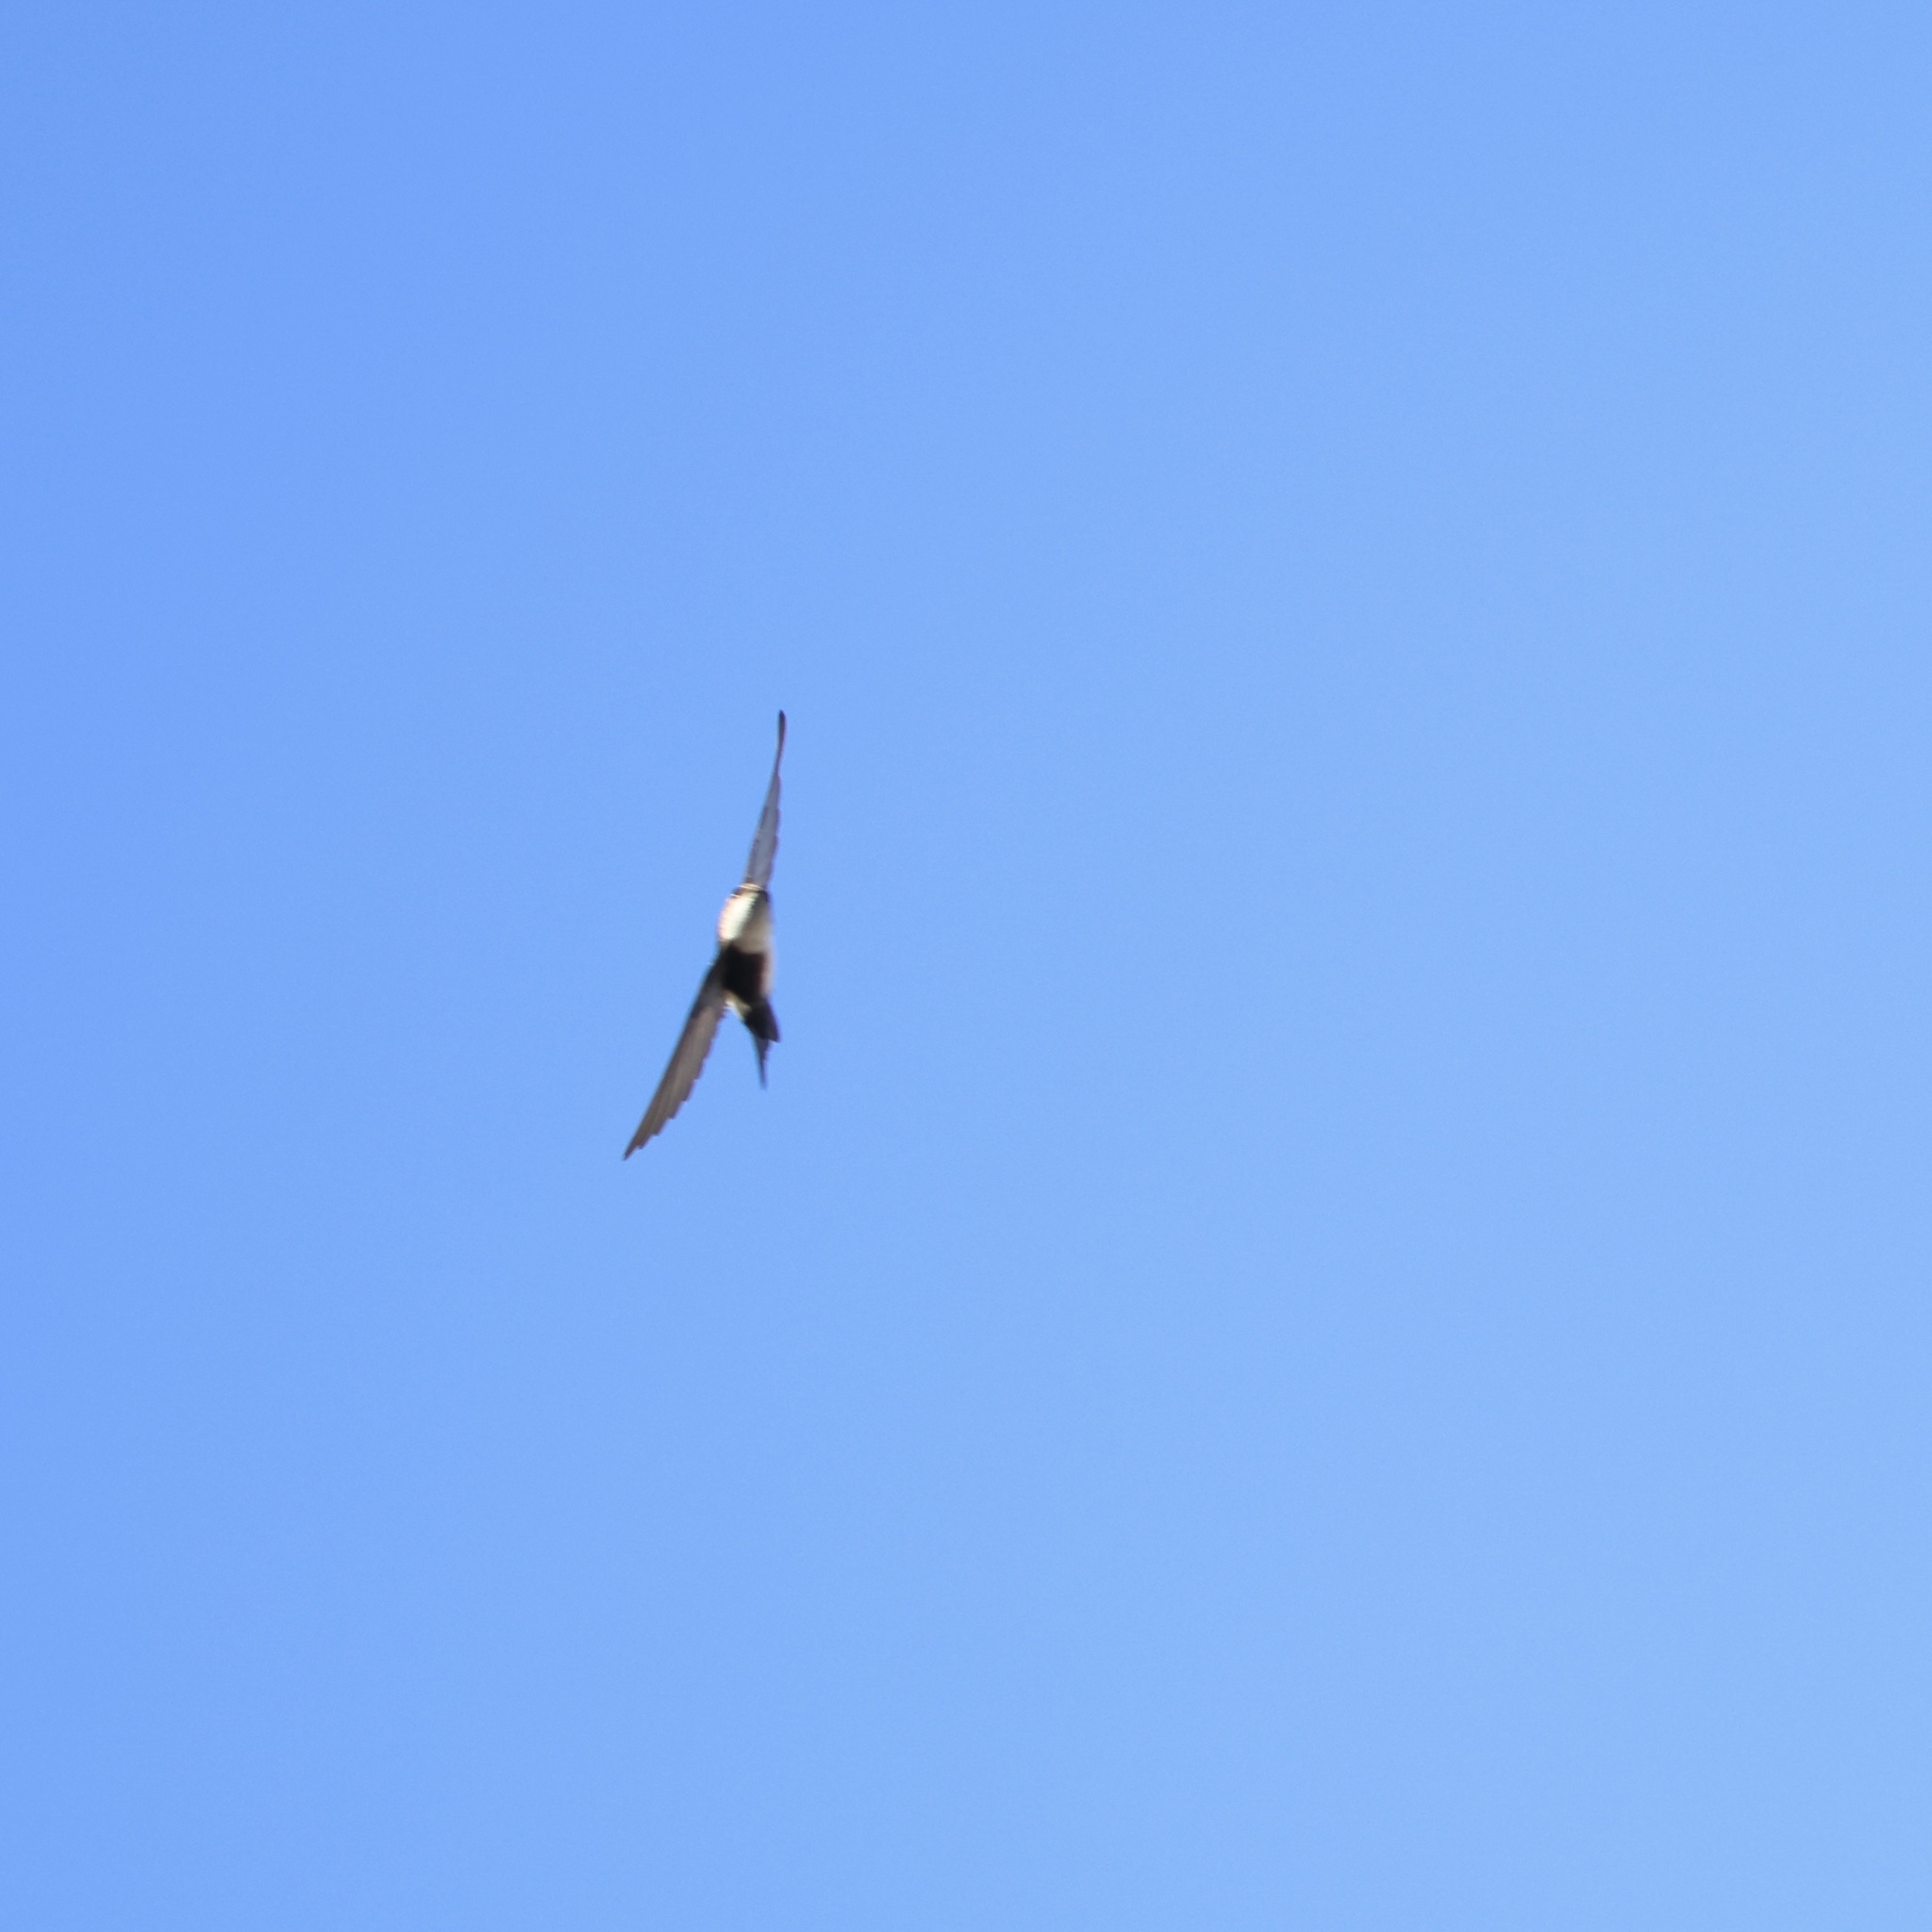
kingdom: Animalia
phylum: Chordata
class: Aves
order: Apodiformes
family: Apodidae
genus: Tachornis
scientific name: Tachornis phoenicobia
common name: Antillean palm swift
